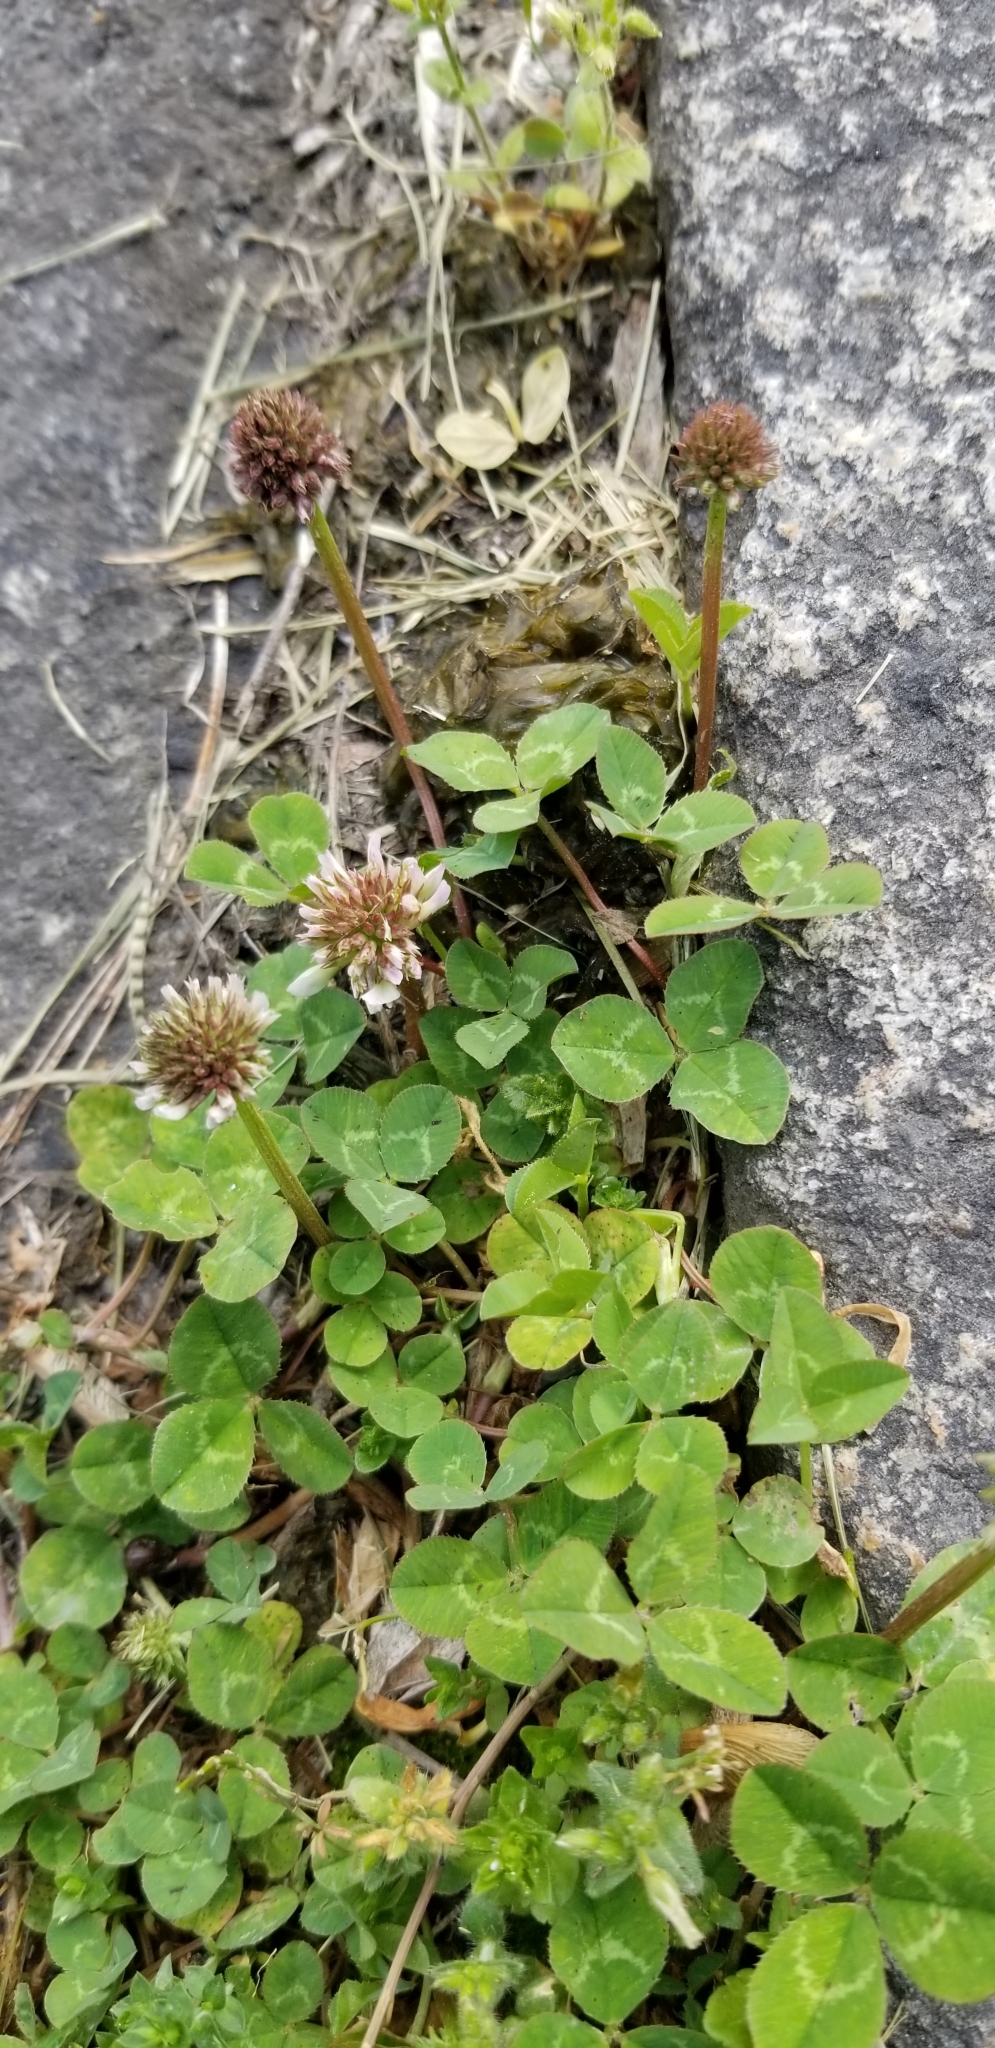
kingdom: Plantae
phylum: Tracheophyta
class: Magnoliopsida
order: Fabales
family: Fabaceae
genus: Trifolium
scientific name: Trifolium repens
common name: White clover
